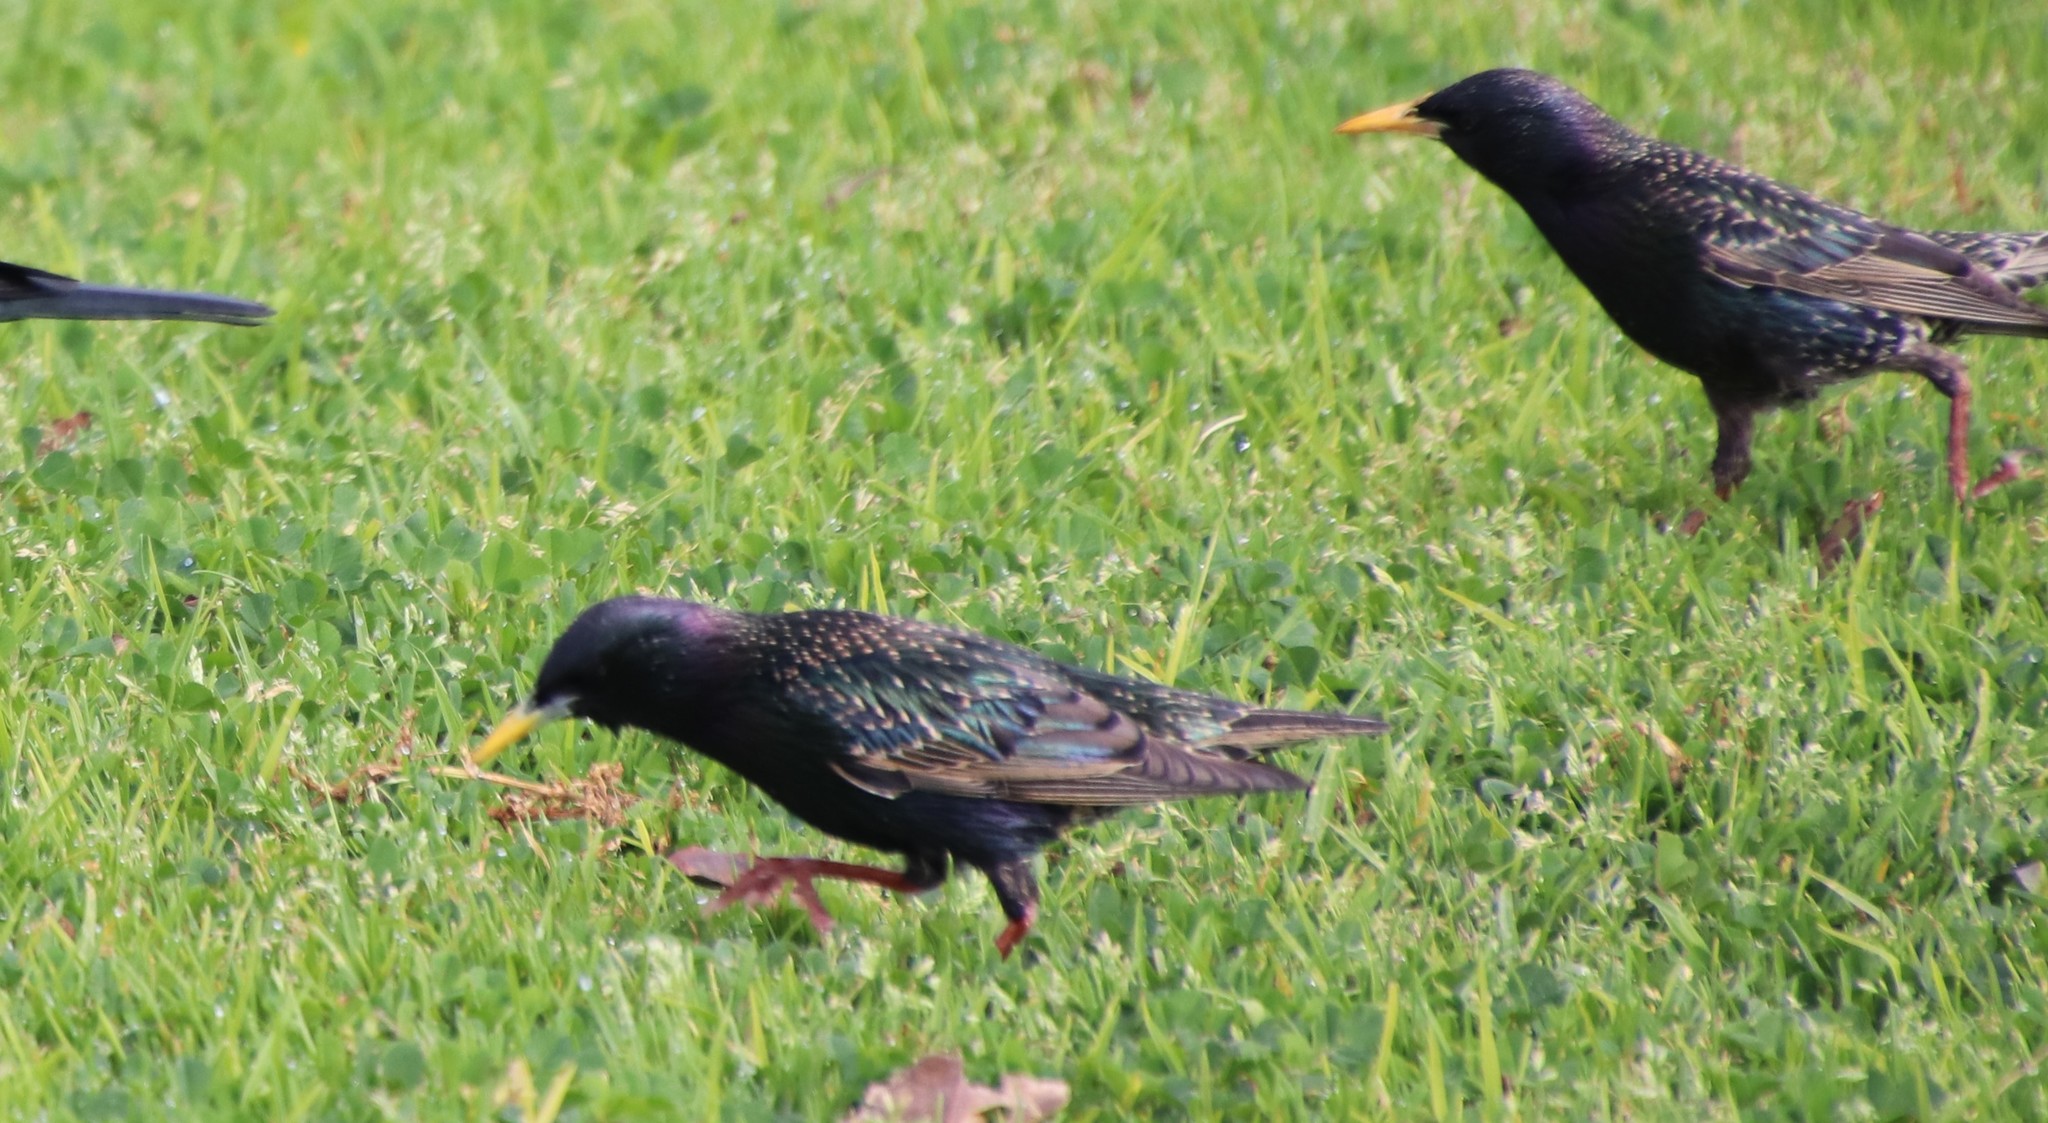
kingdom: Animalia
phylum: Chordata
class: Aves
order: Passeriformes
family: Sturnidae
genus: Sturnus
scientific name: Sturnus vulgaris
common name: Common starling
